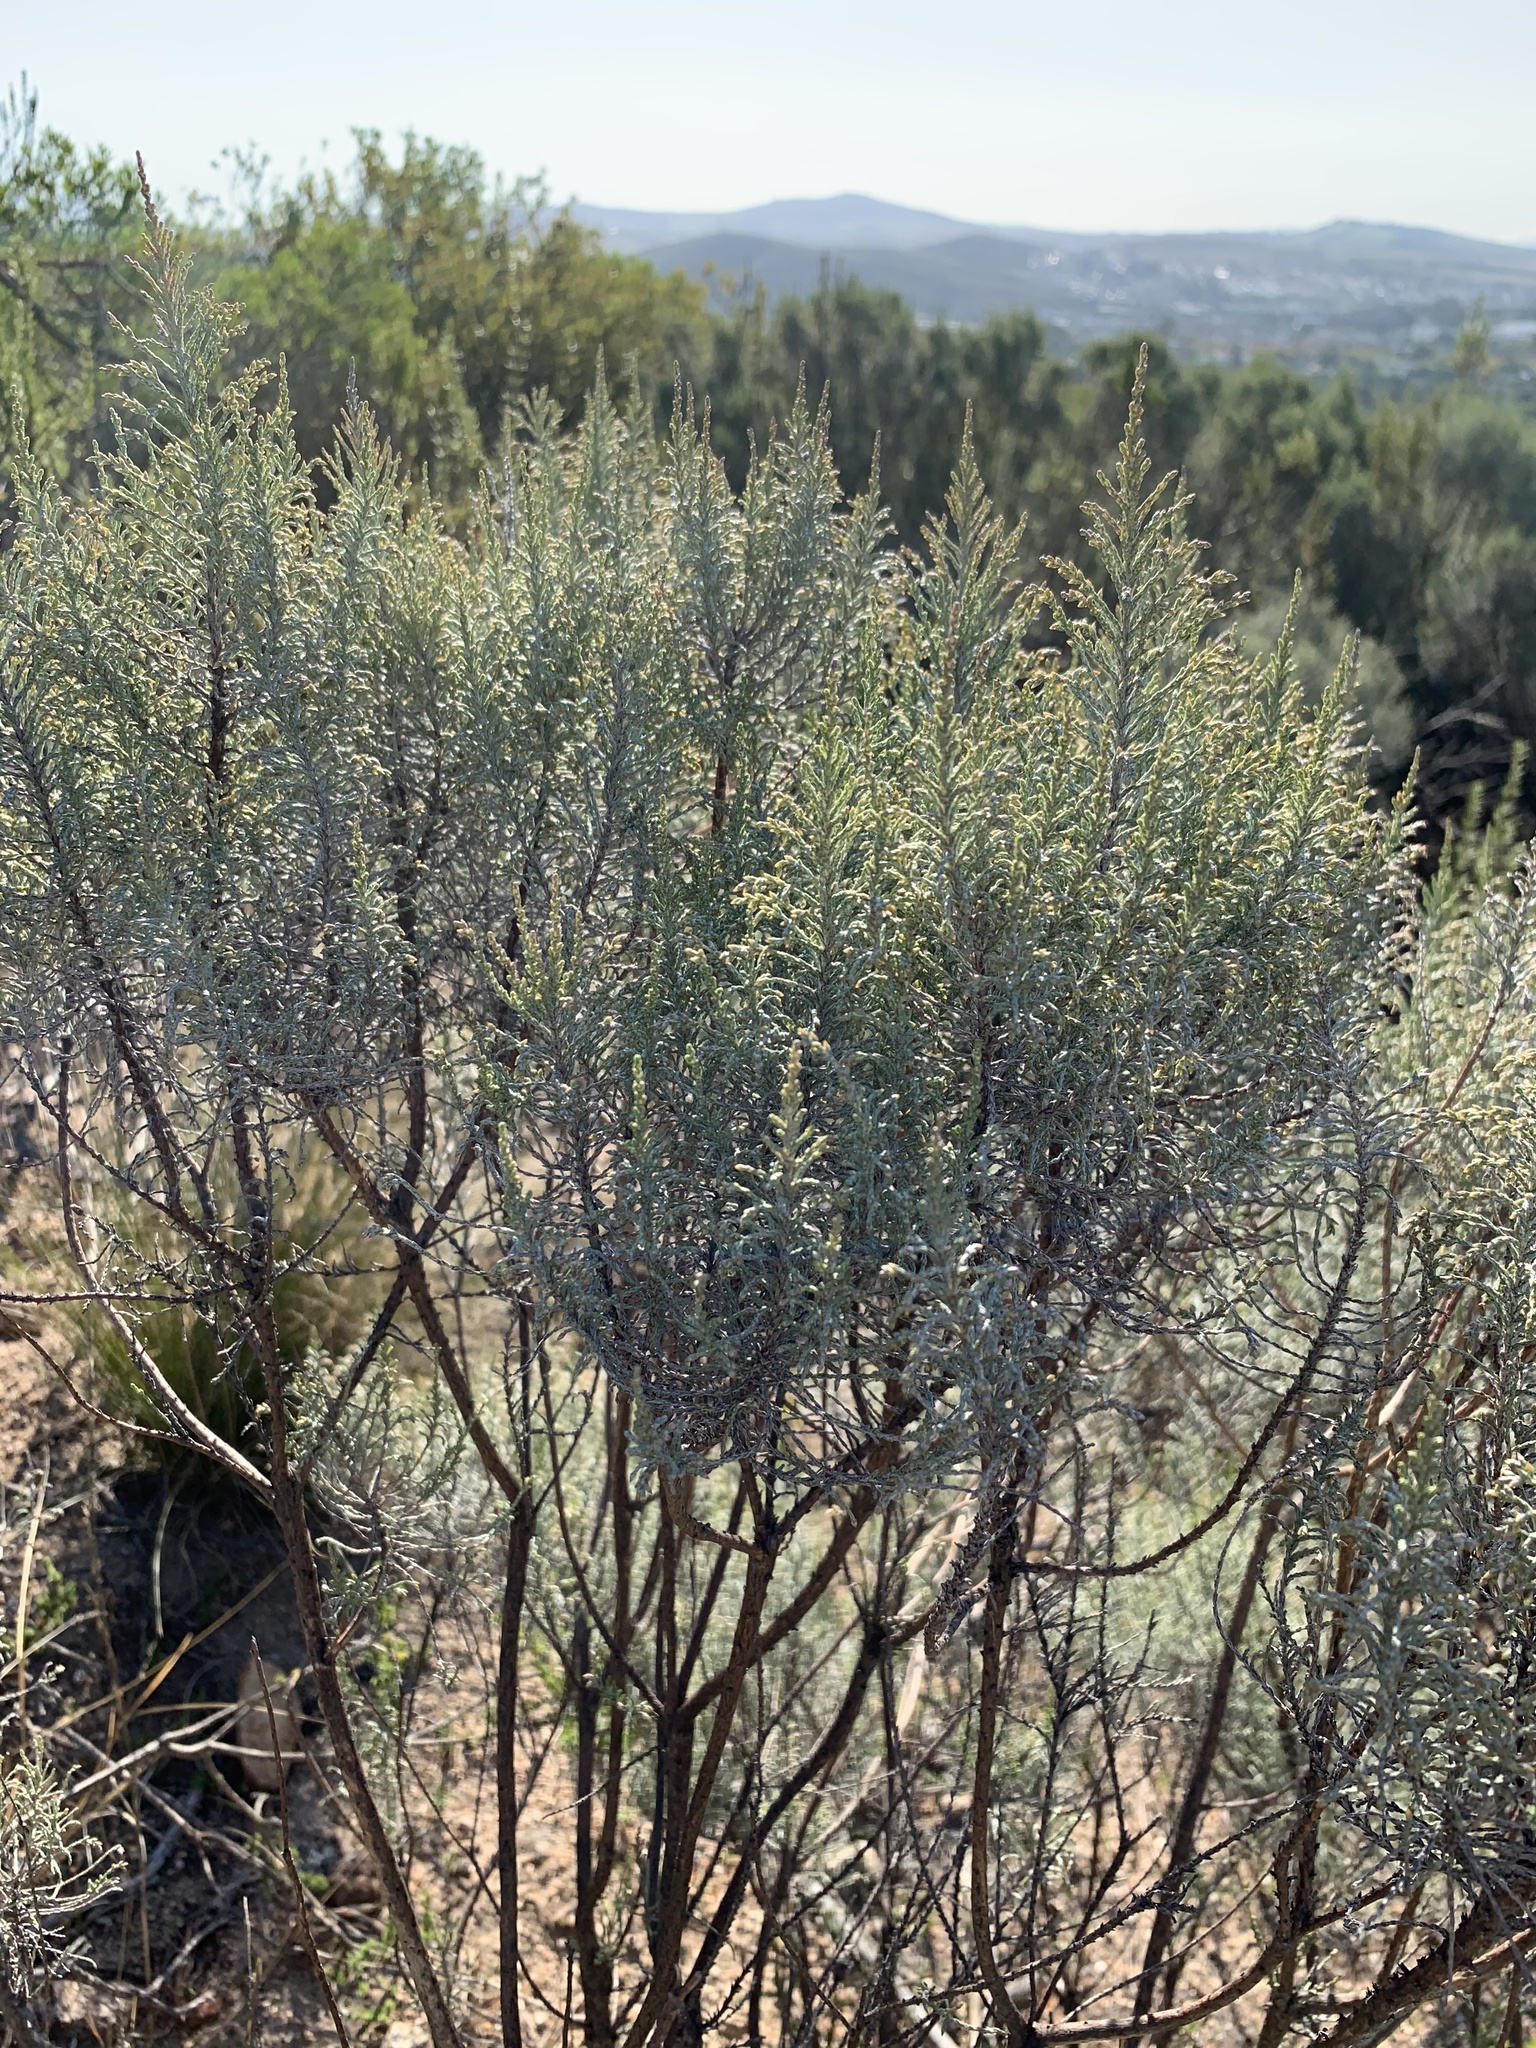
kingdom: Plantae
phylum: Tracheophyta
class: Magnoliopsida
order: Asterales
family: Asteraceae
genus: Dicerothamnus
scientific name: Dicerothamnus rhinocerotis
